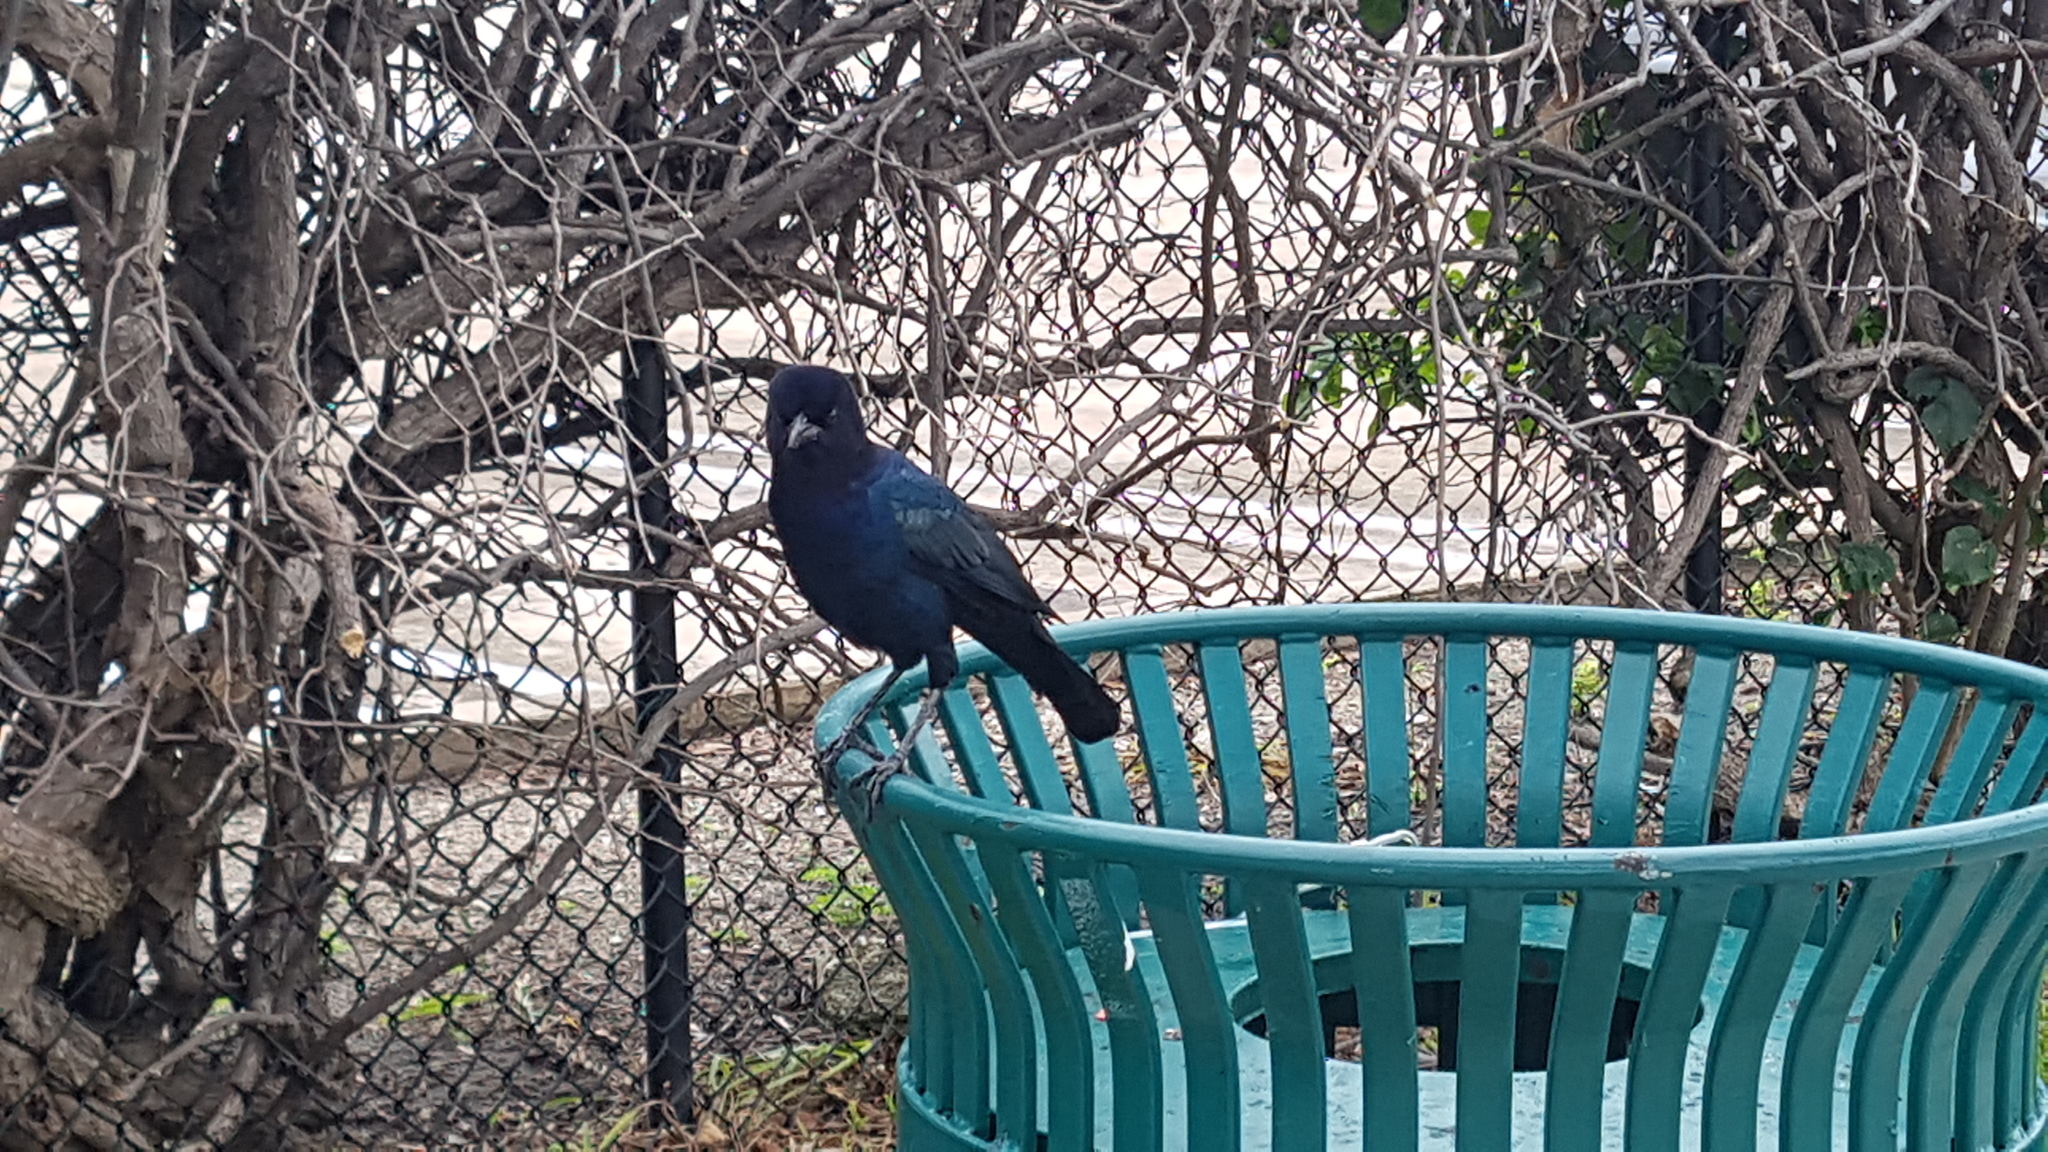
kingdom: Animalia
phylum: Chordata
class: Aves
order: Passeriformes
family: Icteridae
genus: Quiscalus
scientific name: Quiscalus major
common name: Boat-tailed grackle
